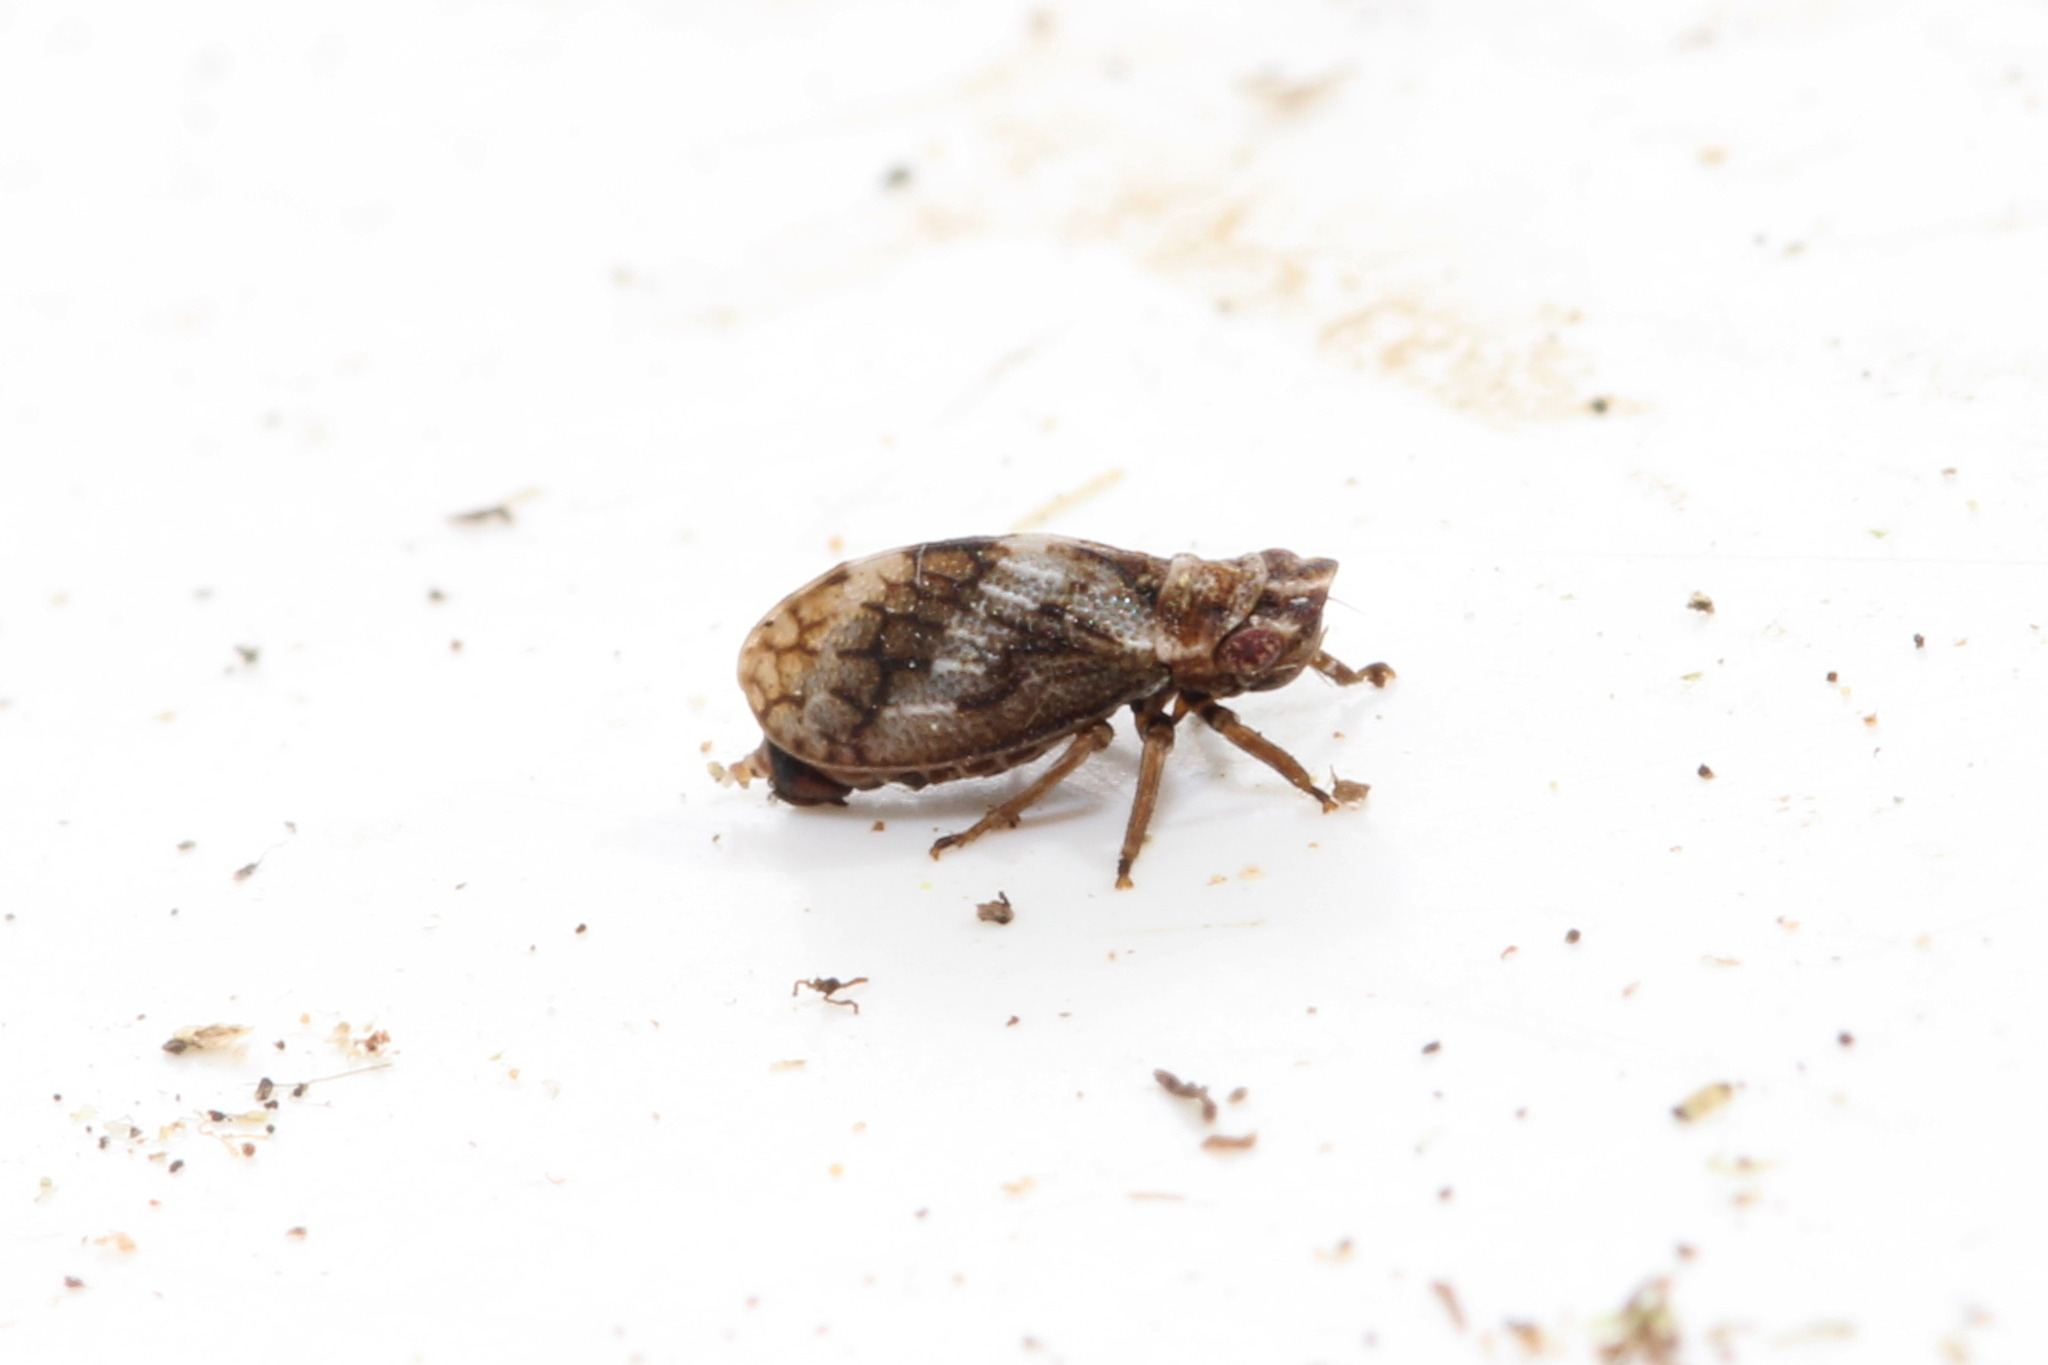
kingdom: Animalia
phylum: Arthropoda
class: Insecta
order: Hemiptera
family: Cicadellidae
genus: Ulopa
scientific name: Ulopa reticulata
